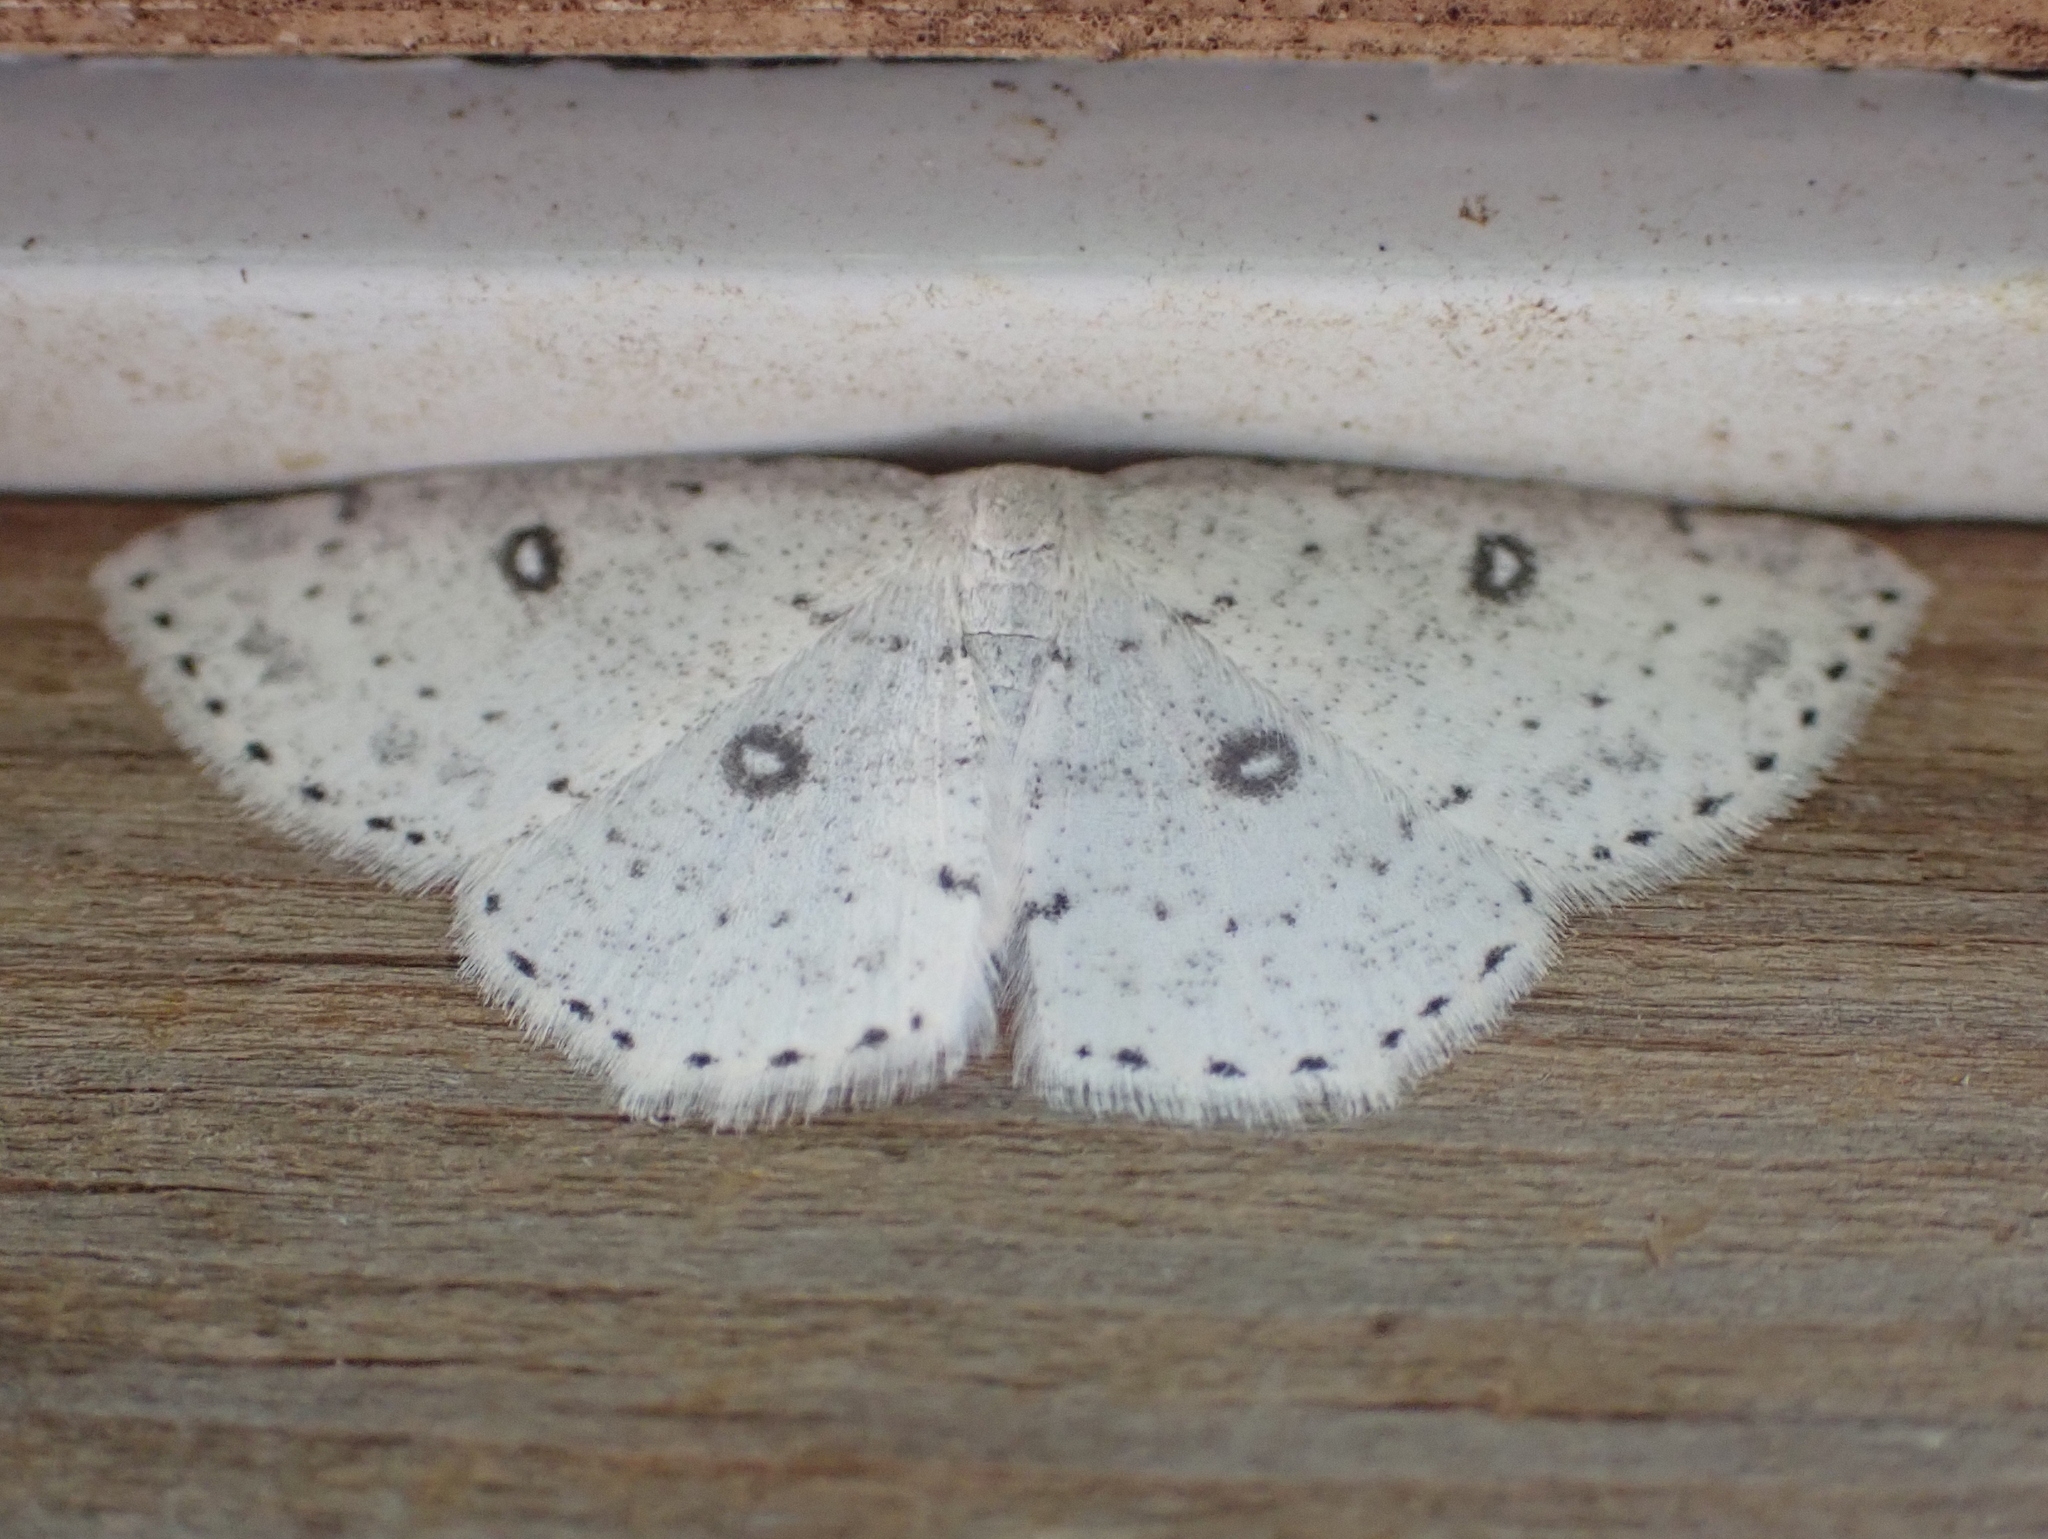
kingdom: Animalia
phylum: Arthropoda
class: Insecta
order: Lepidoptera
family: Geometridae
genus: Cyclophora
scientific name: Cyclophora pendulinaria
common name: Sweet fern geometer
